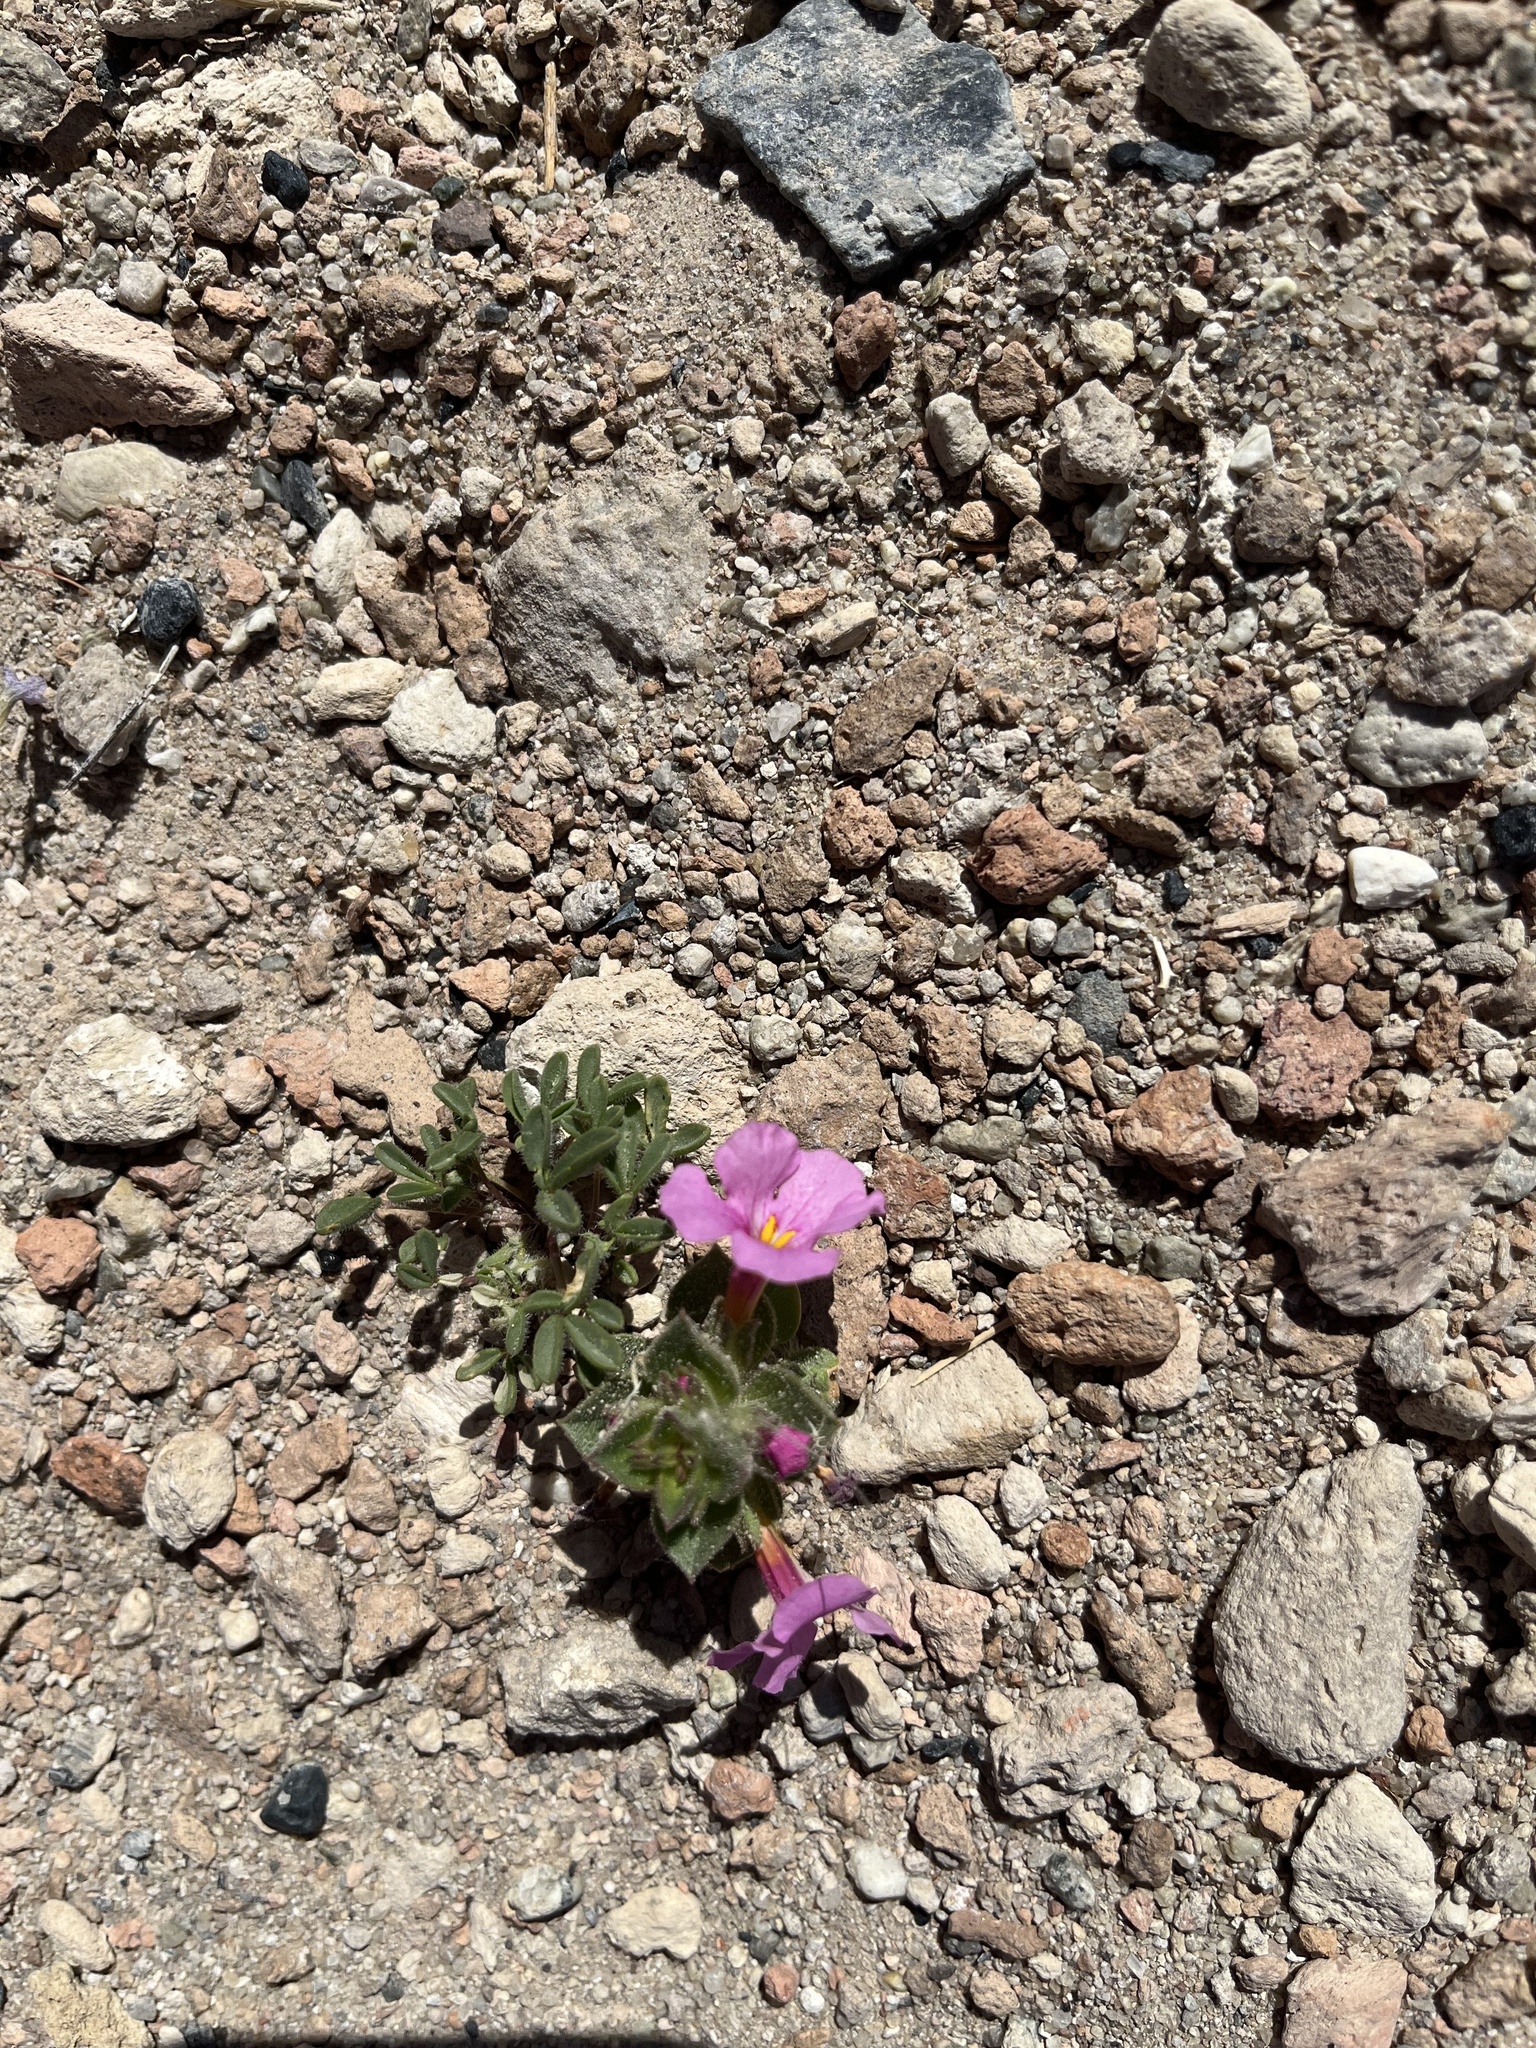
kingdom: Plantae
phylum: Tracheophyta
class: Magnoliopsida
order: Lamiales
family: Phrymaceae
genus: Diplacus
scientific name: Diplacus bigelovii
